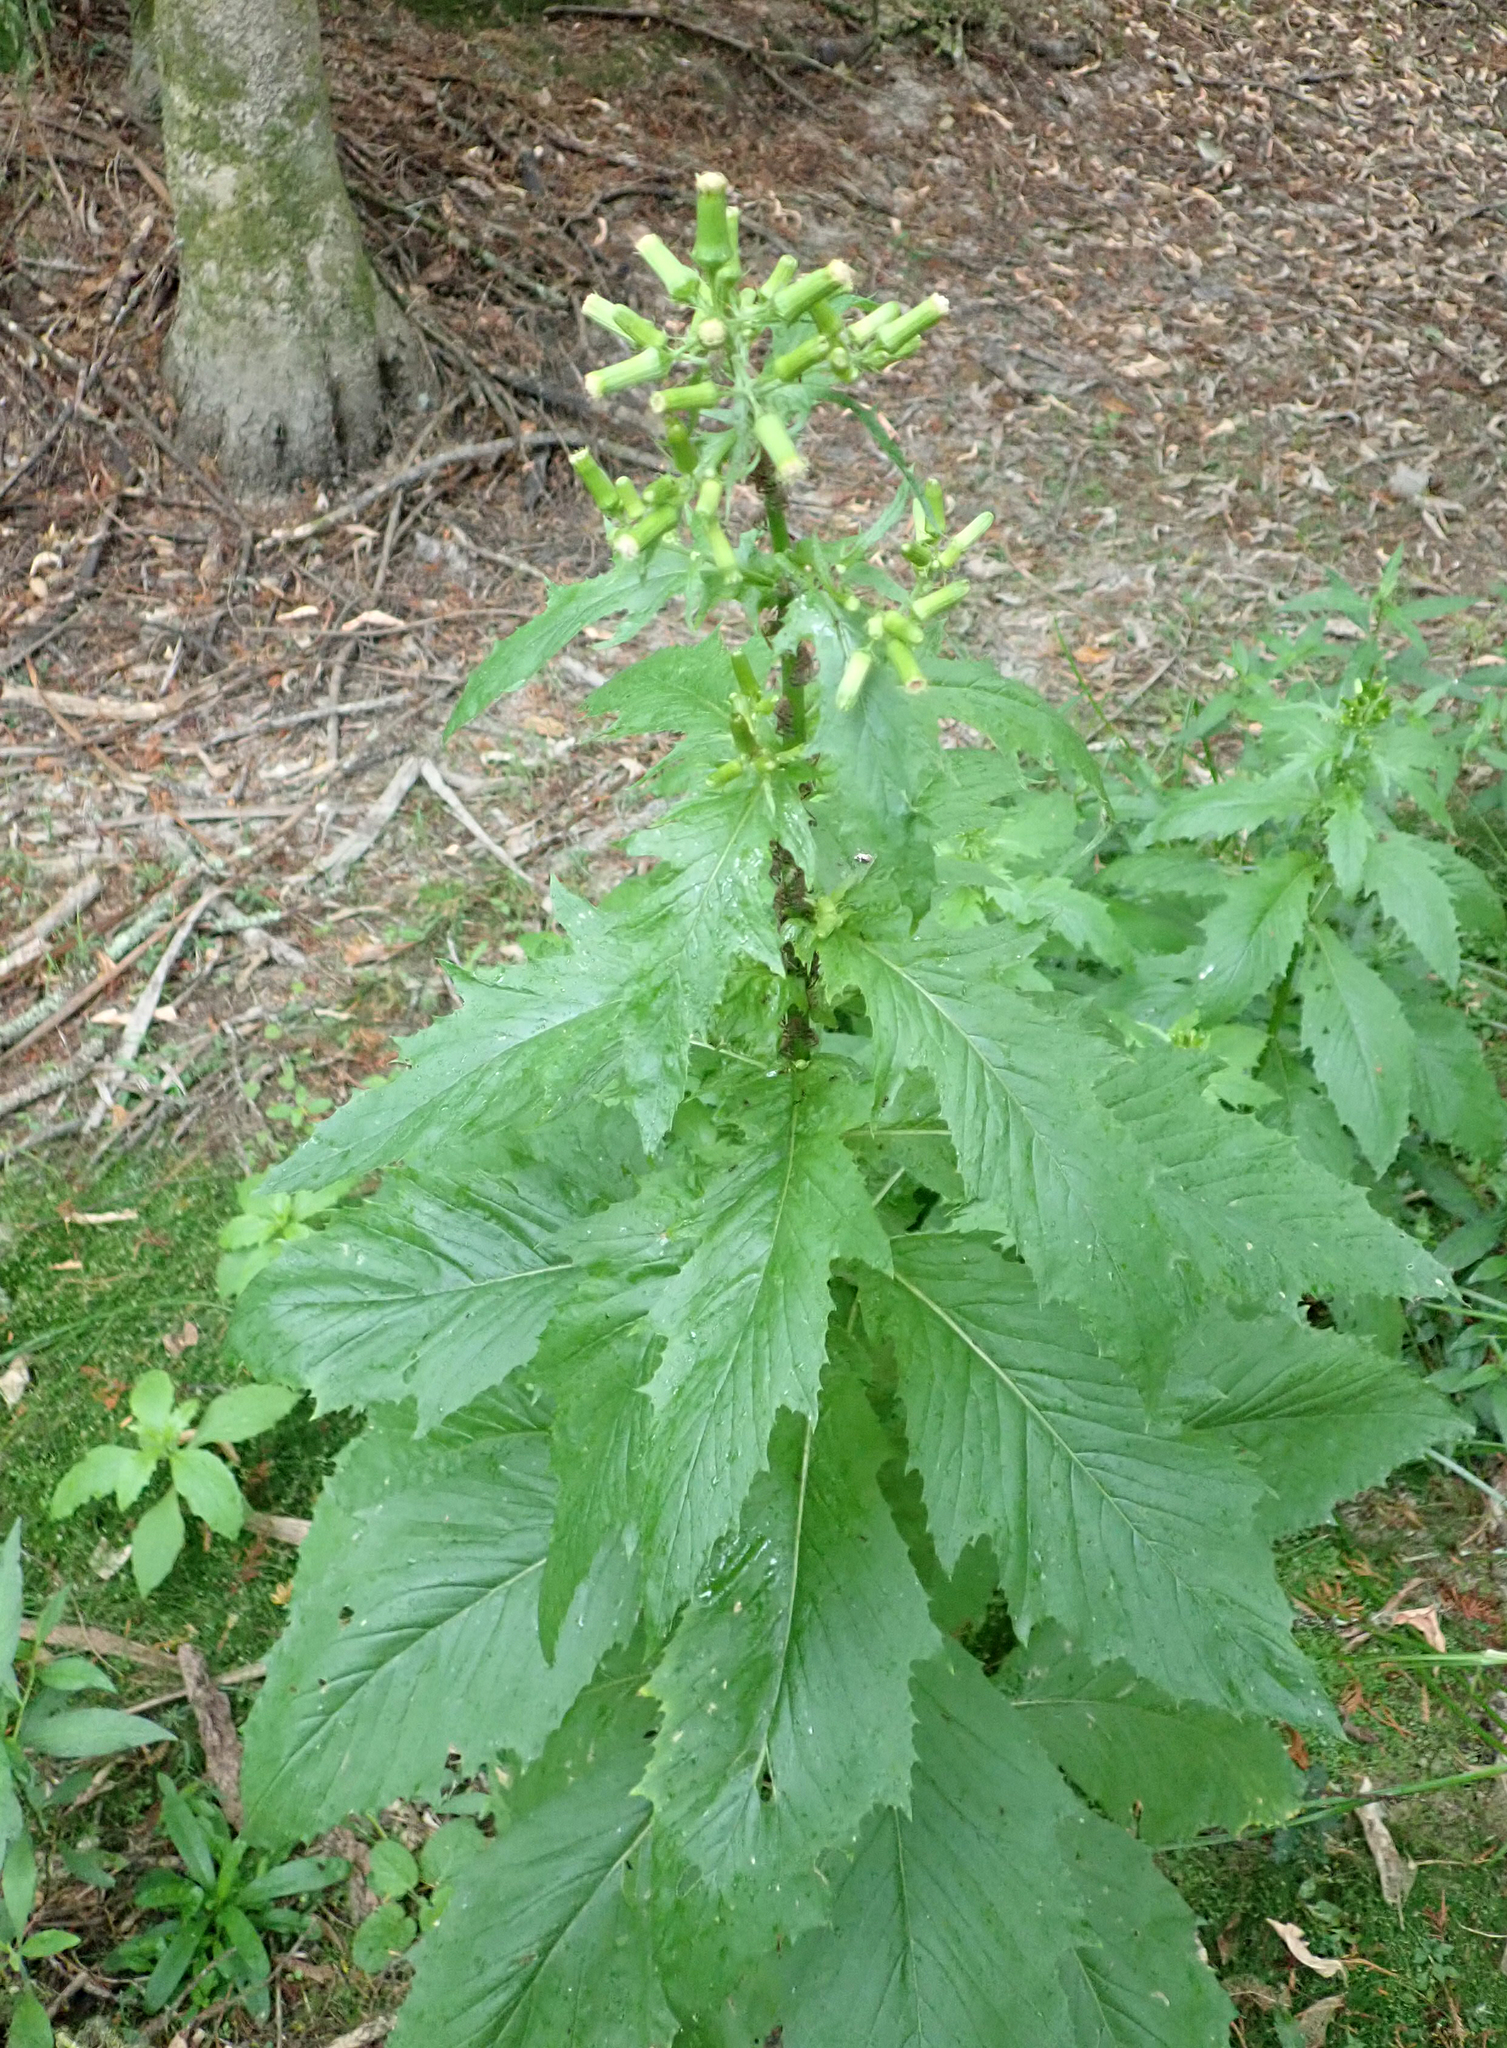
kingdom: Plantae
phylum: Tracheophyta
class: Magnoliopsida
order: Asterales
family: Asteraceae
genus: Erechtites
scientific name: Erechtites hieraciifolius
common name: American burnweed
